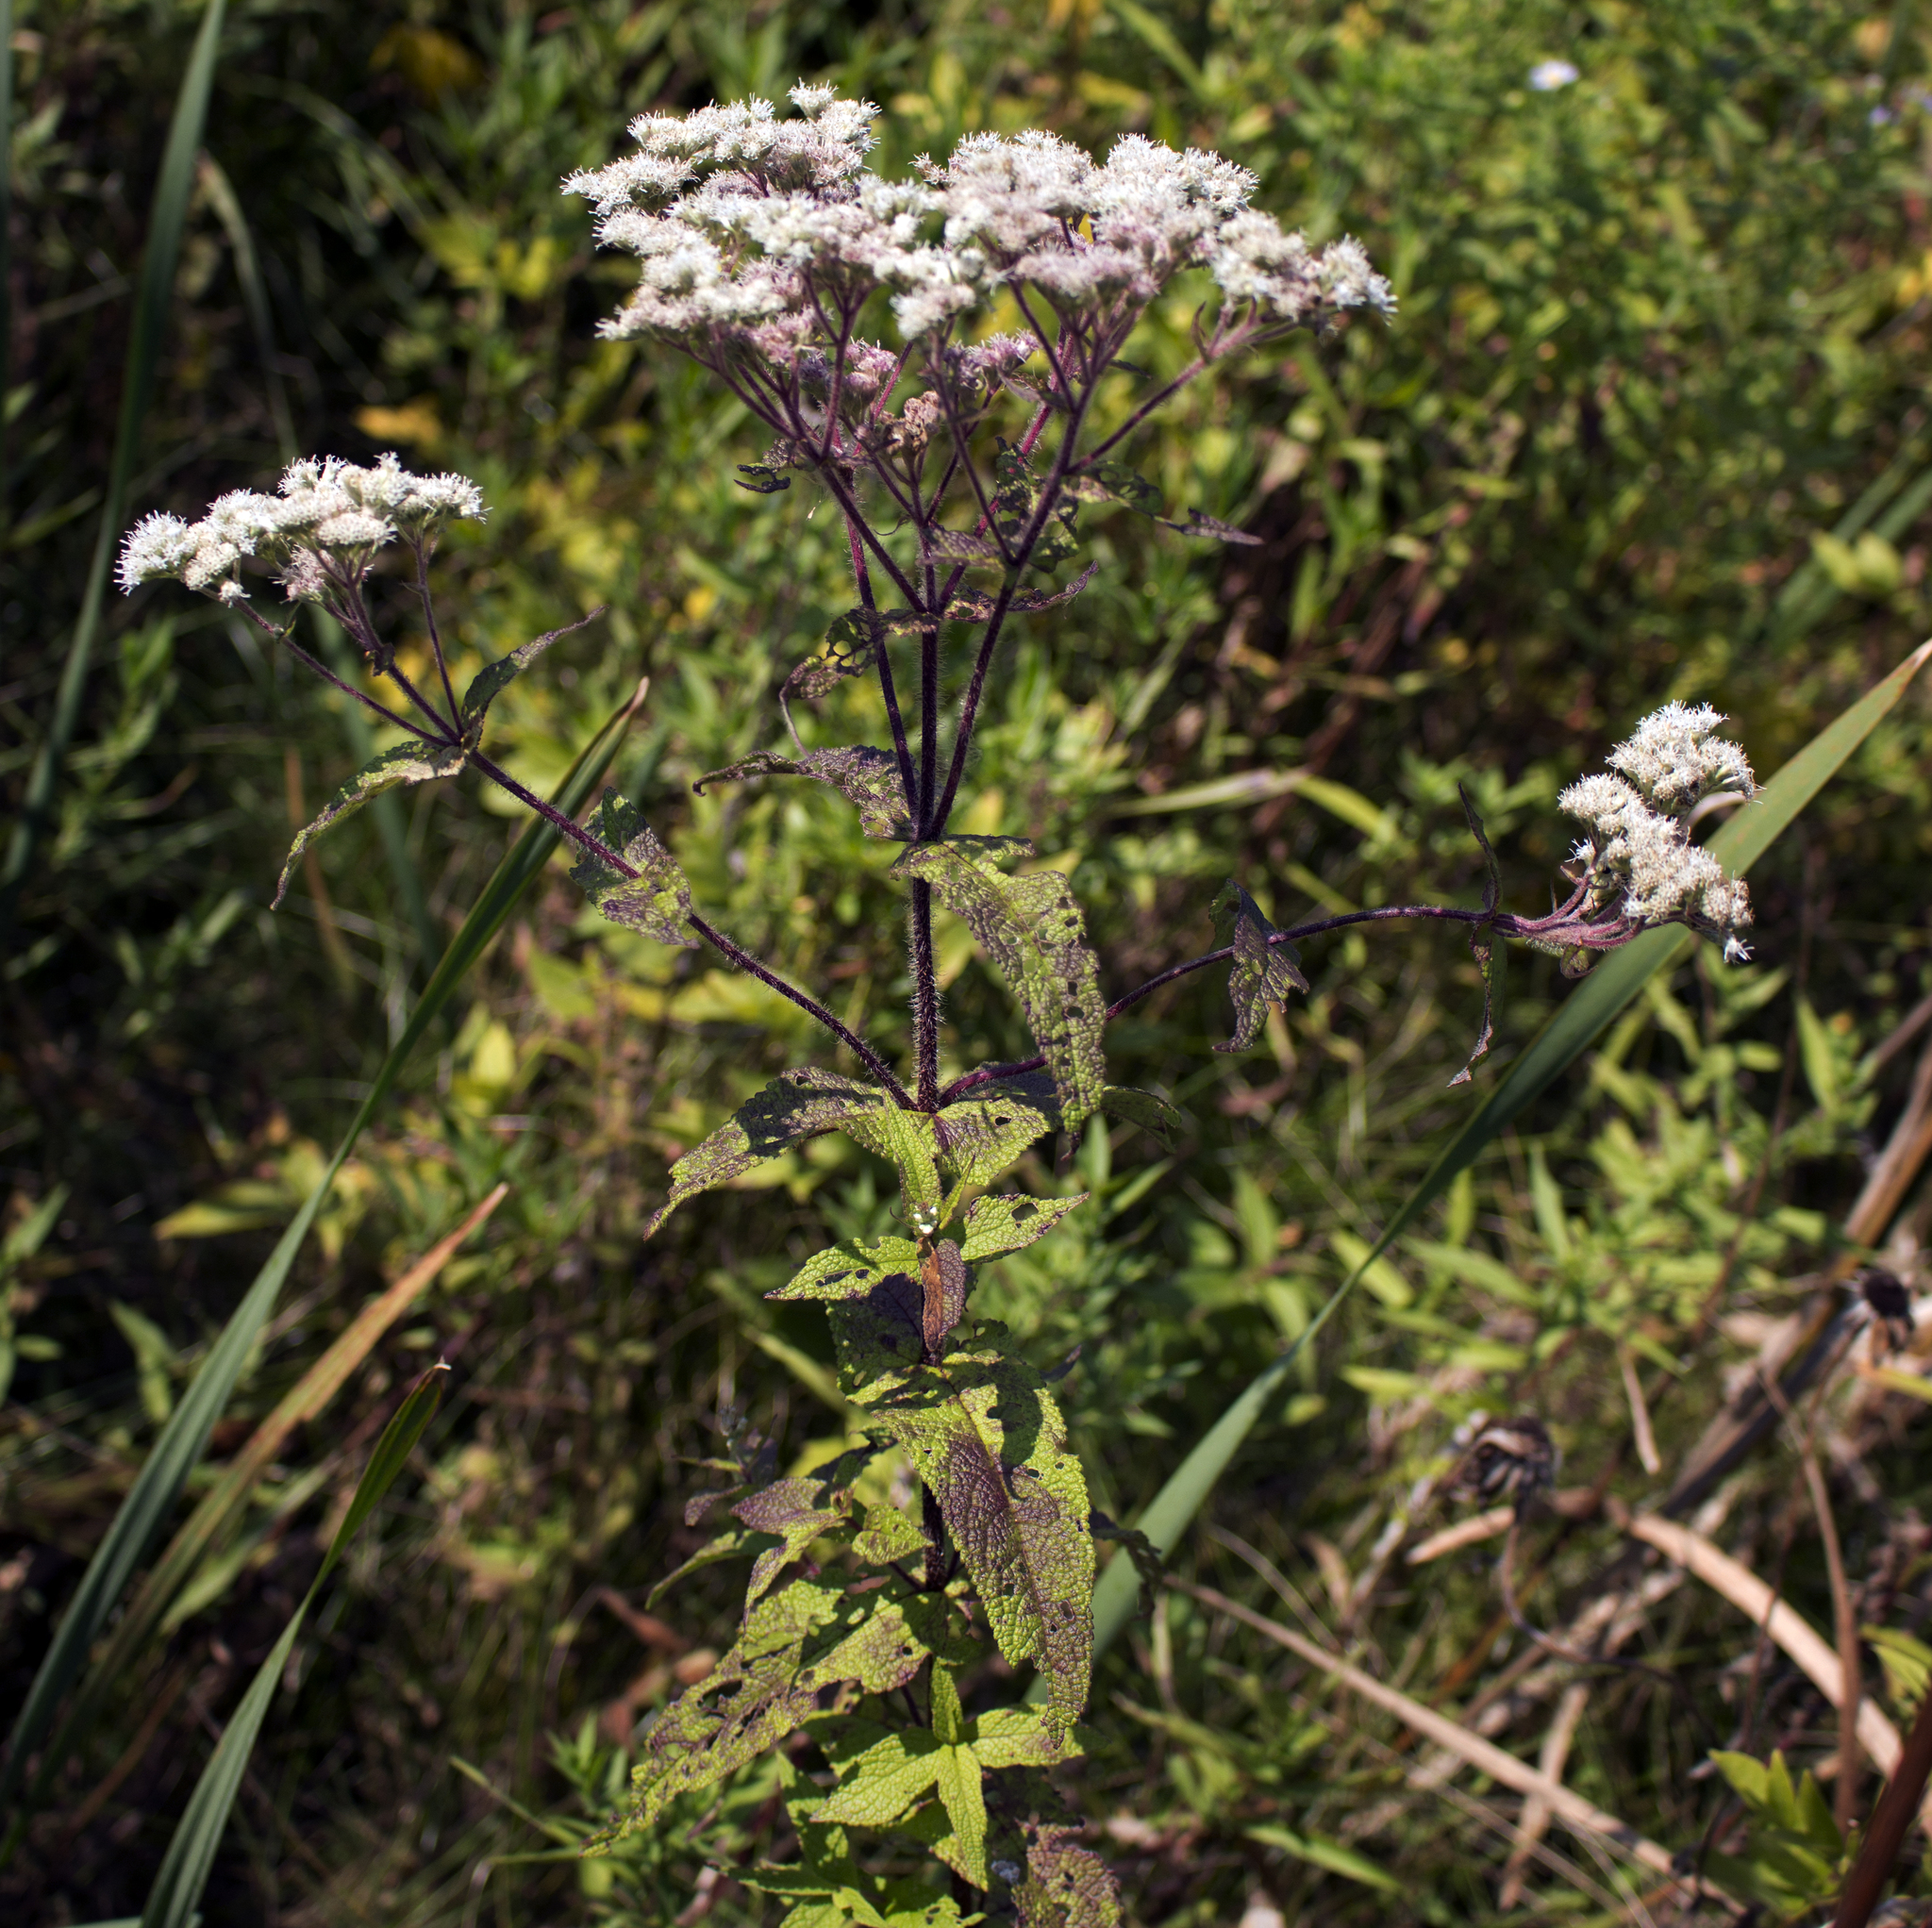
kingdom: Plantae
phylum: Tracheophyta
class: Magnoliopsida
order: Asterales
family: Asteraceae
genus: Eupatorium
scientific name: Eupatorium perfoliatum
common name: Boneset
